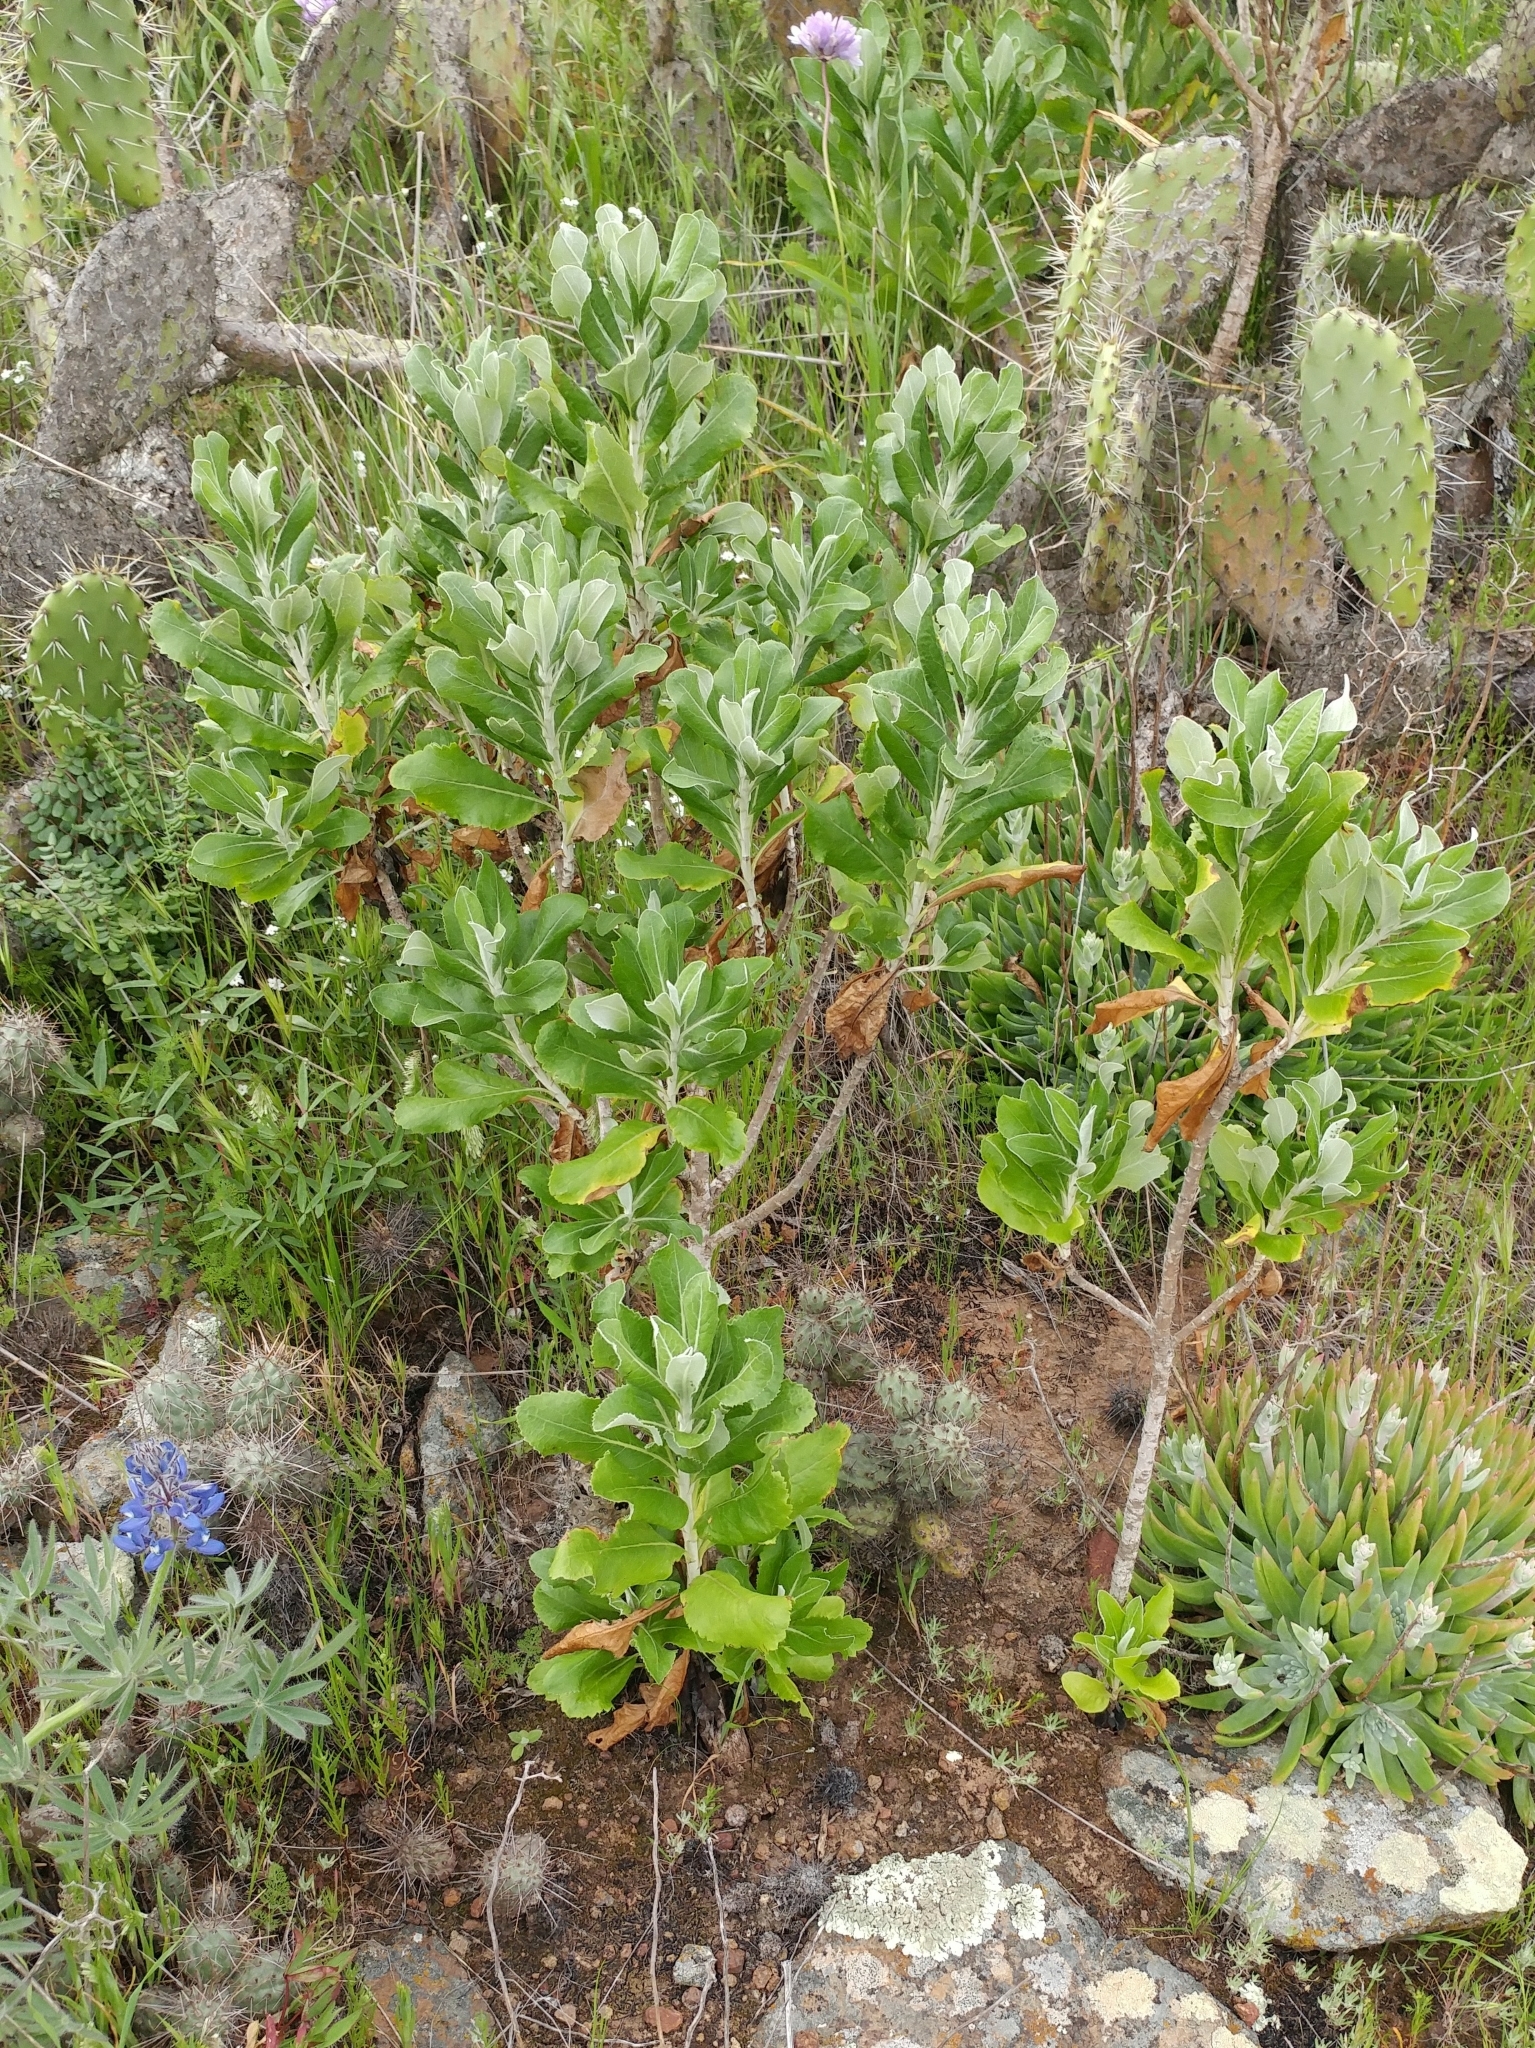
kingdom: Plantae
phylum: Tracheophyta
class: Magnoliopsida
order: Asterales
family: Asteraceae
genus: Hazardia
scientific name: Hazardia cana
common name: San clemente island bristleweed
